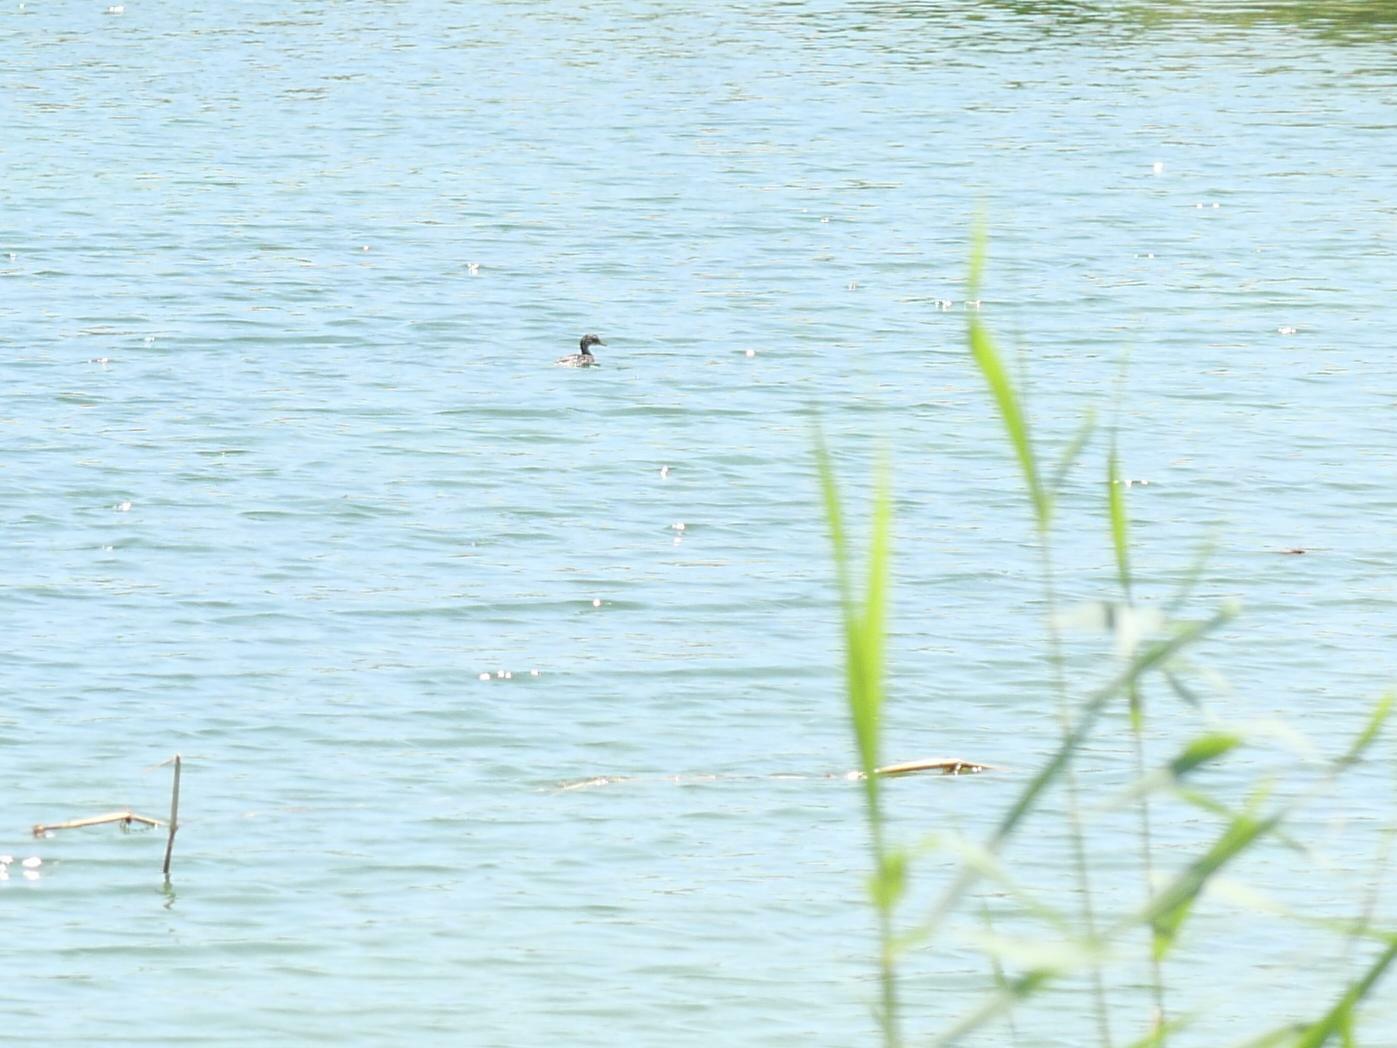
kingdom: Animalia
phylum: Chordata
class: Aves
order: Podicipediformes
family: Podicipedidae
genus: Tachybaptus
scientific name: Tachybaptus ruficollis
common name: Little grebe
